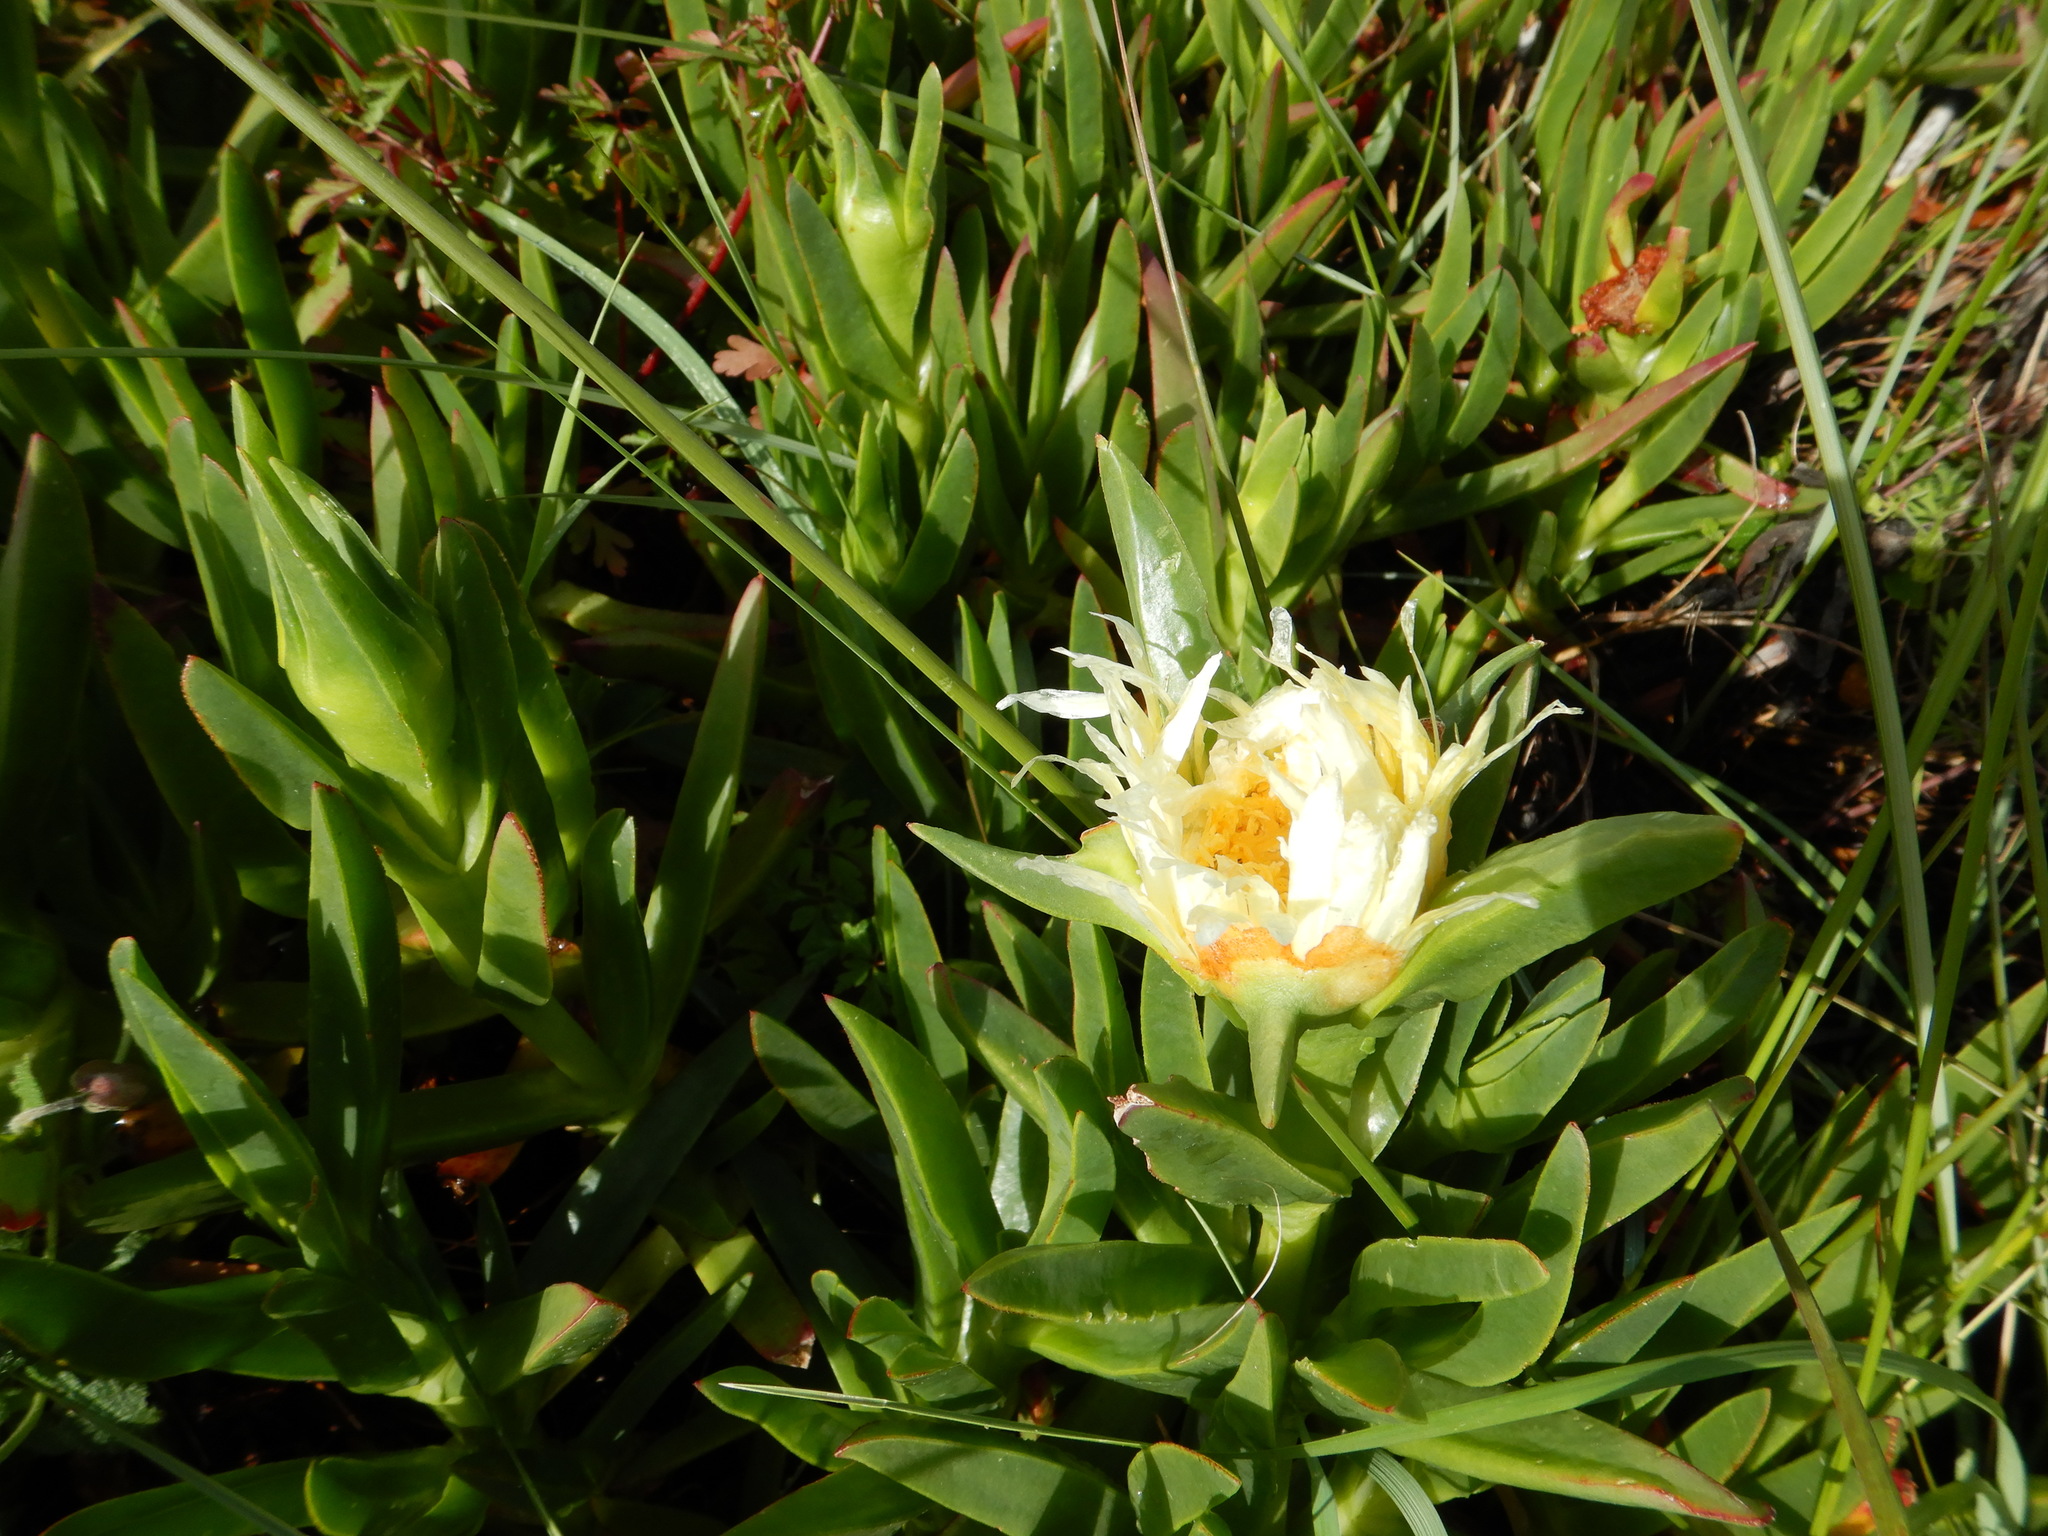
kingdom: Plantae
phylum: Tracheophyta
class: Magnoliopsida
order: Caryophyllales
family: Aizoaceae
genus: Carpobrotus
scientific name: Carpobrotus edulis
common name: Hottentot-fig
